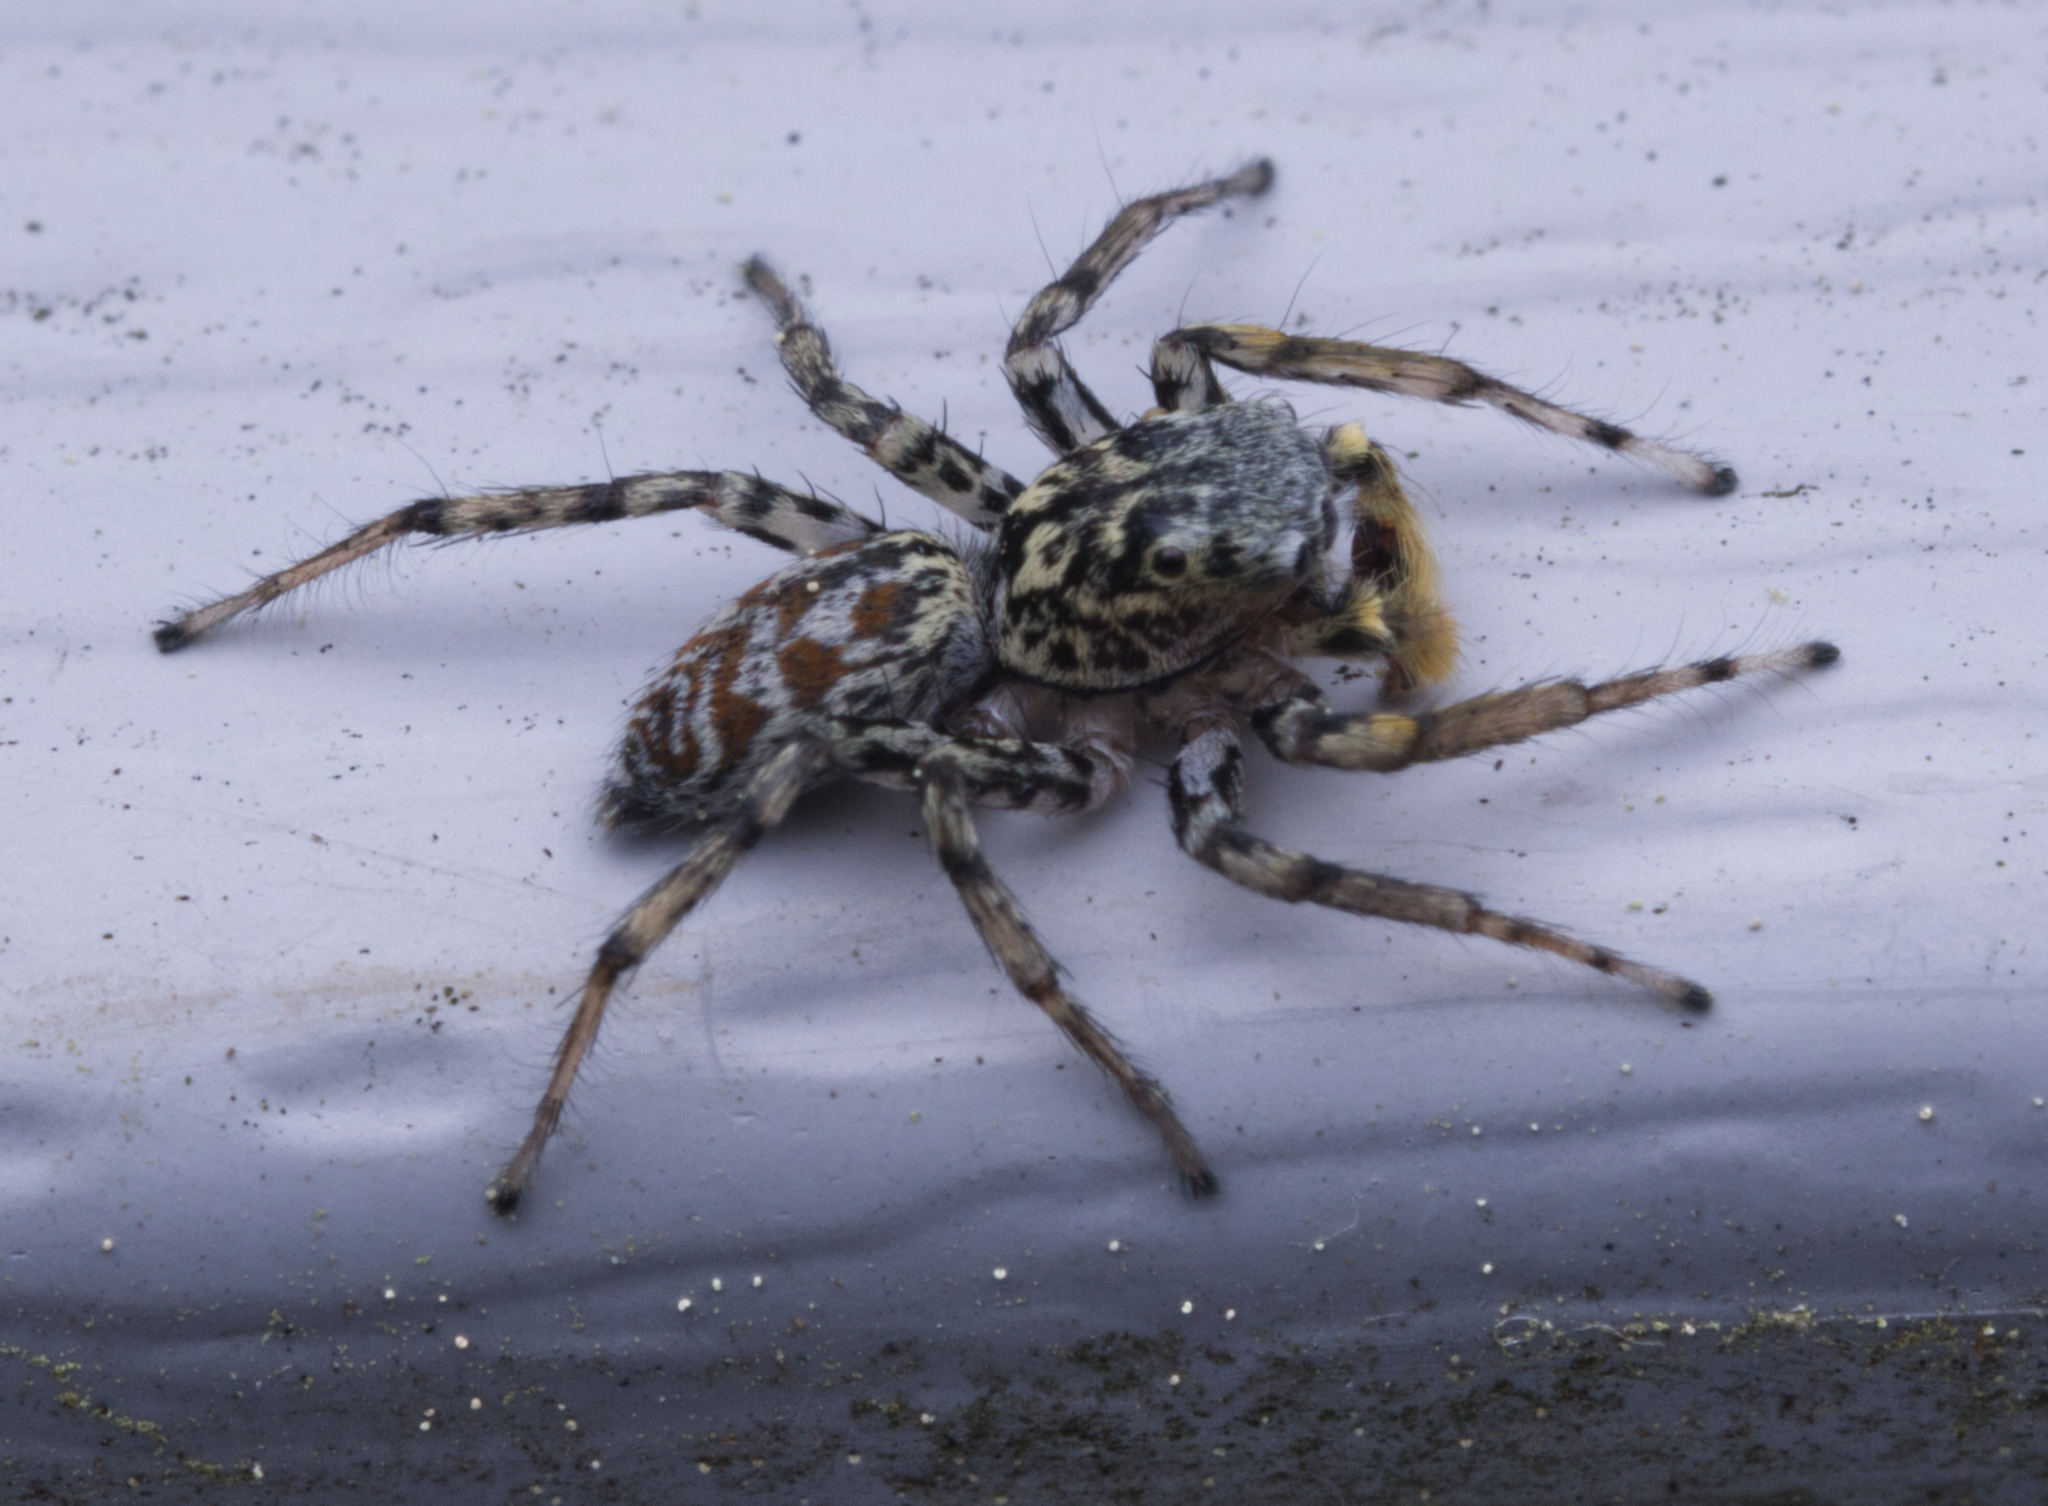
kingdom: Animalia
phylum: Arthropoda
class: Arachnida
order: Araneae
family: Salticidae
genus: Maevia
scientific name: Maevia inclemens
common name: Dimorphic jumper
